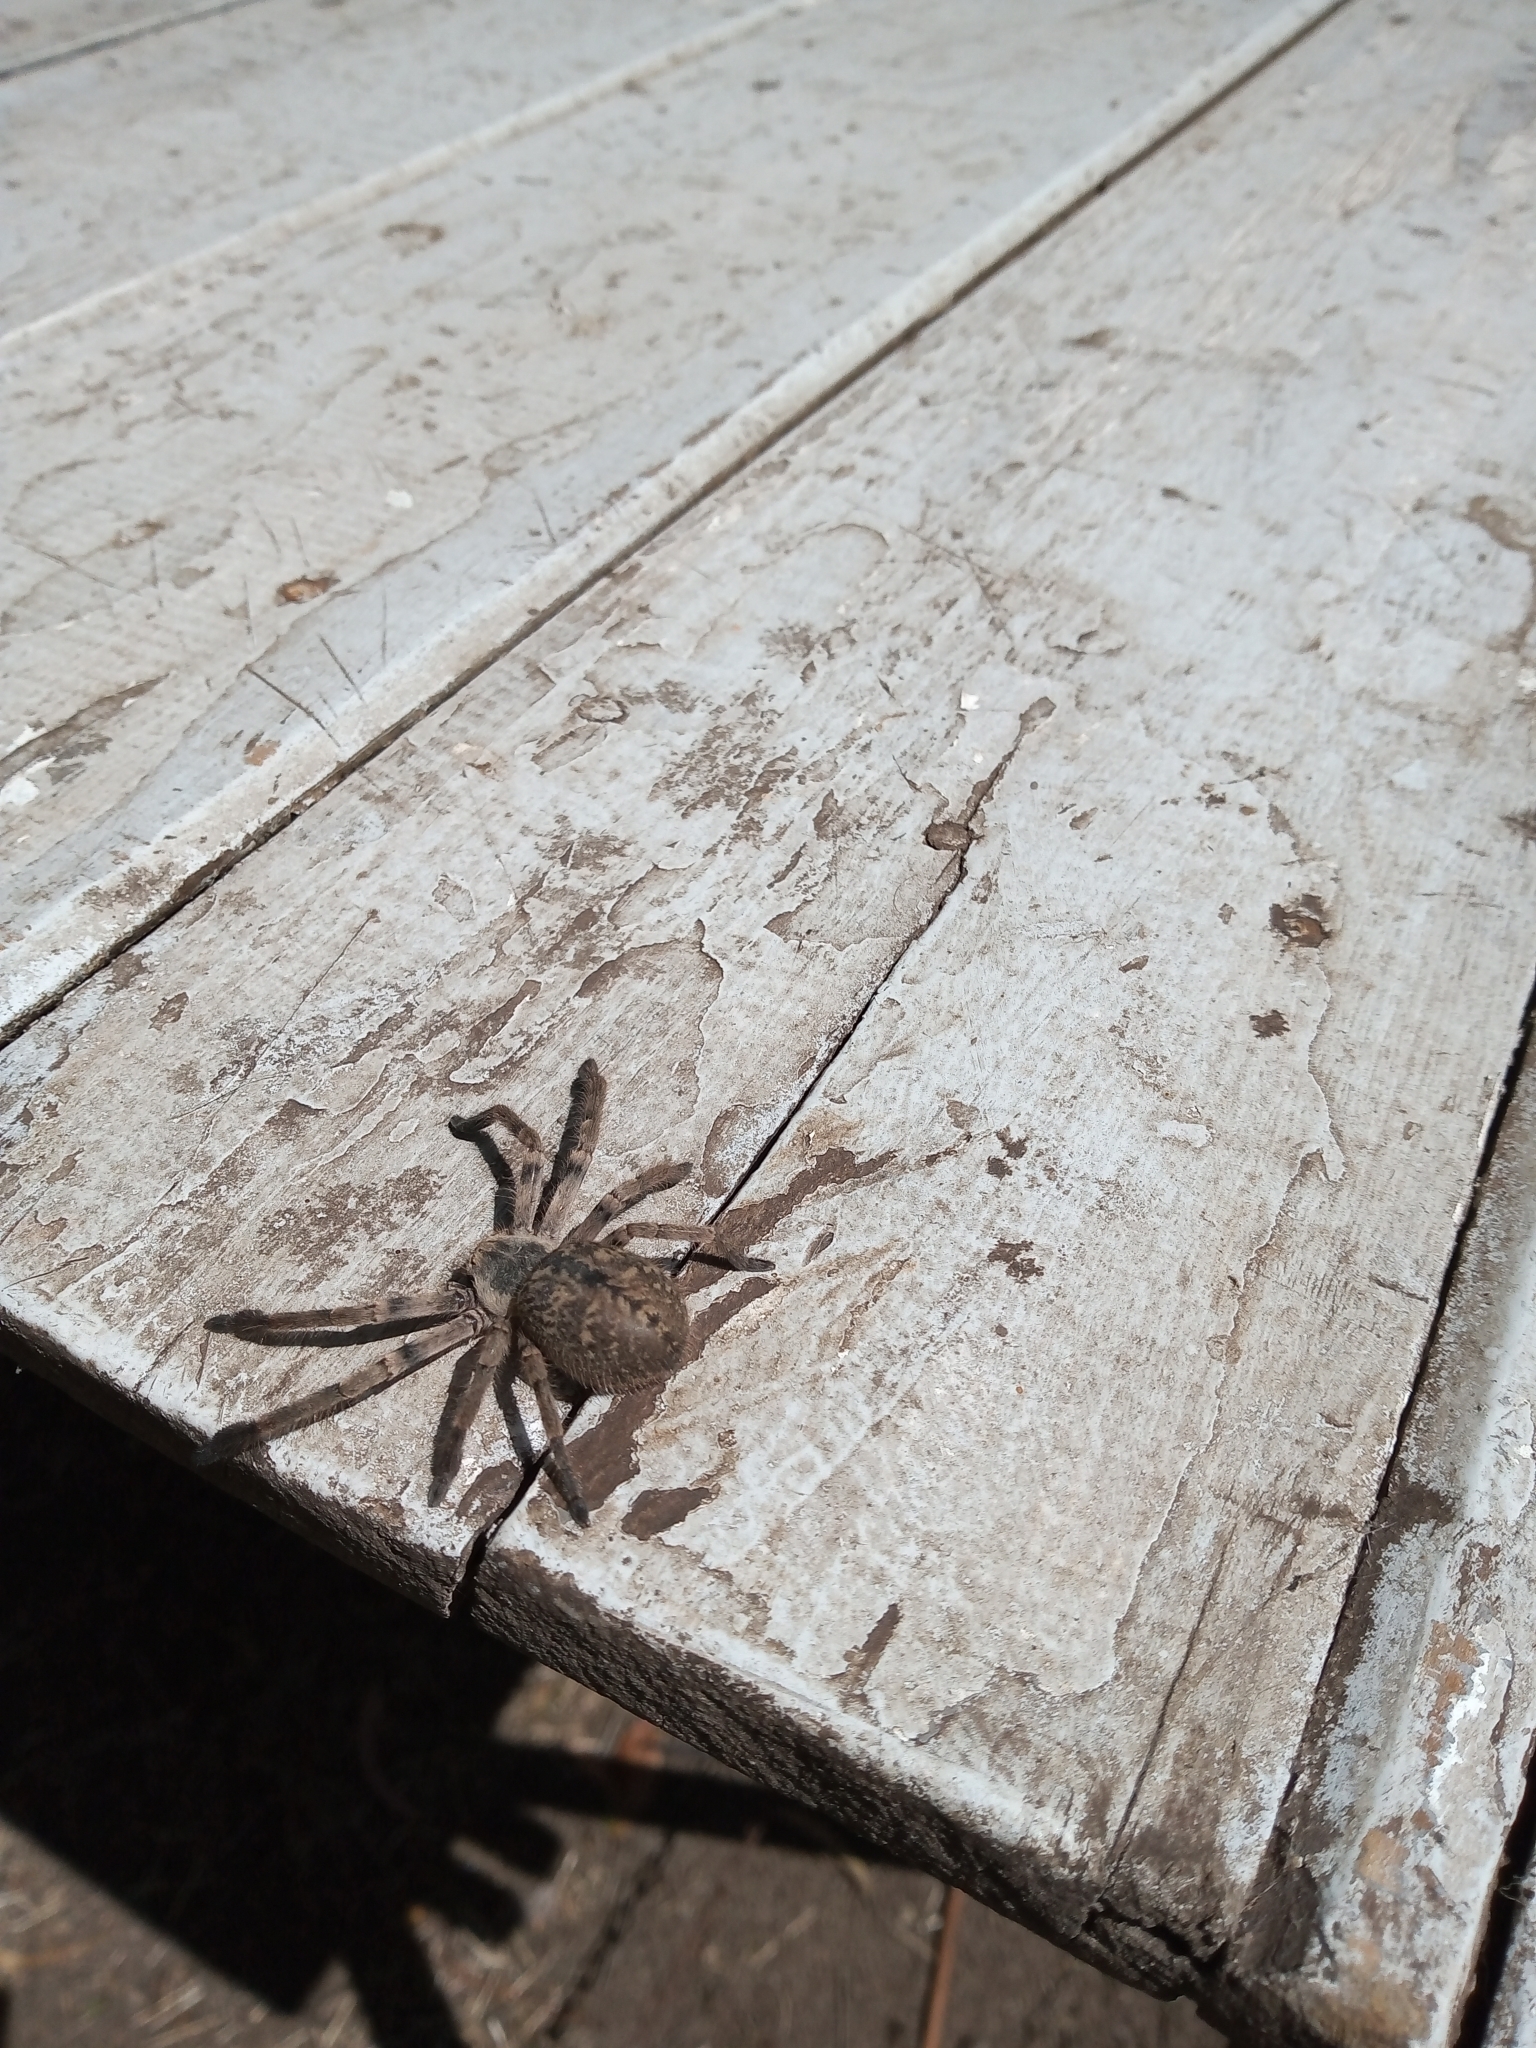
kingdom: Animalia
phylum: Arthropoda
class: Arachnida
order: Araneae
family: Sparassidae
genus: Polybetes
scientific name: Polybetes pythagoricus
